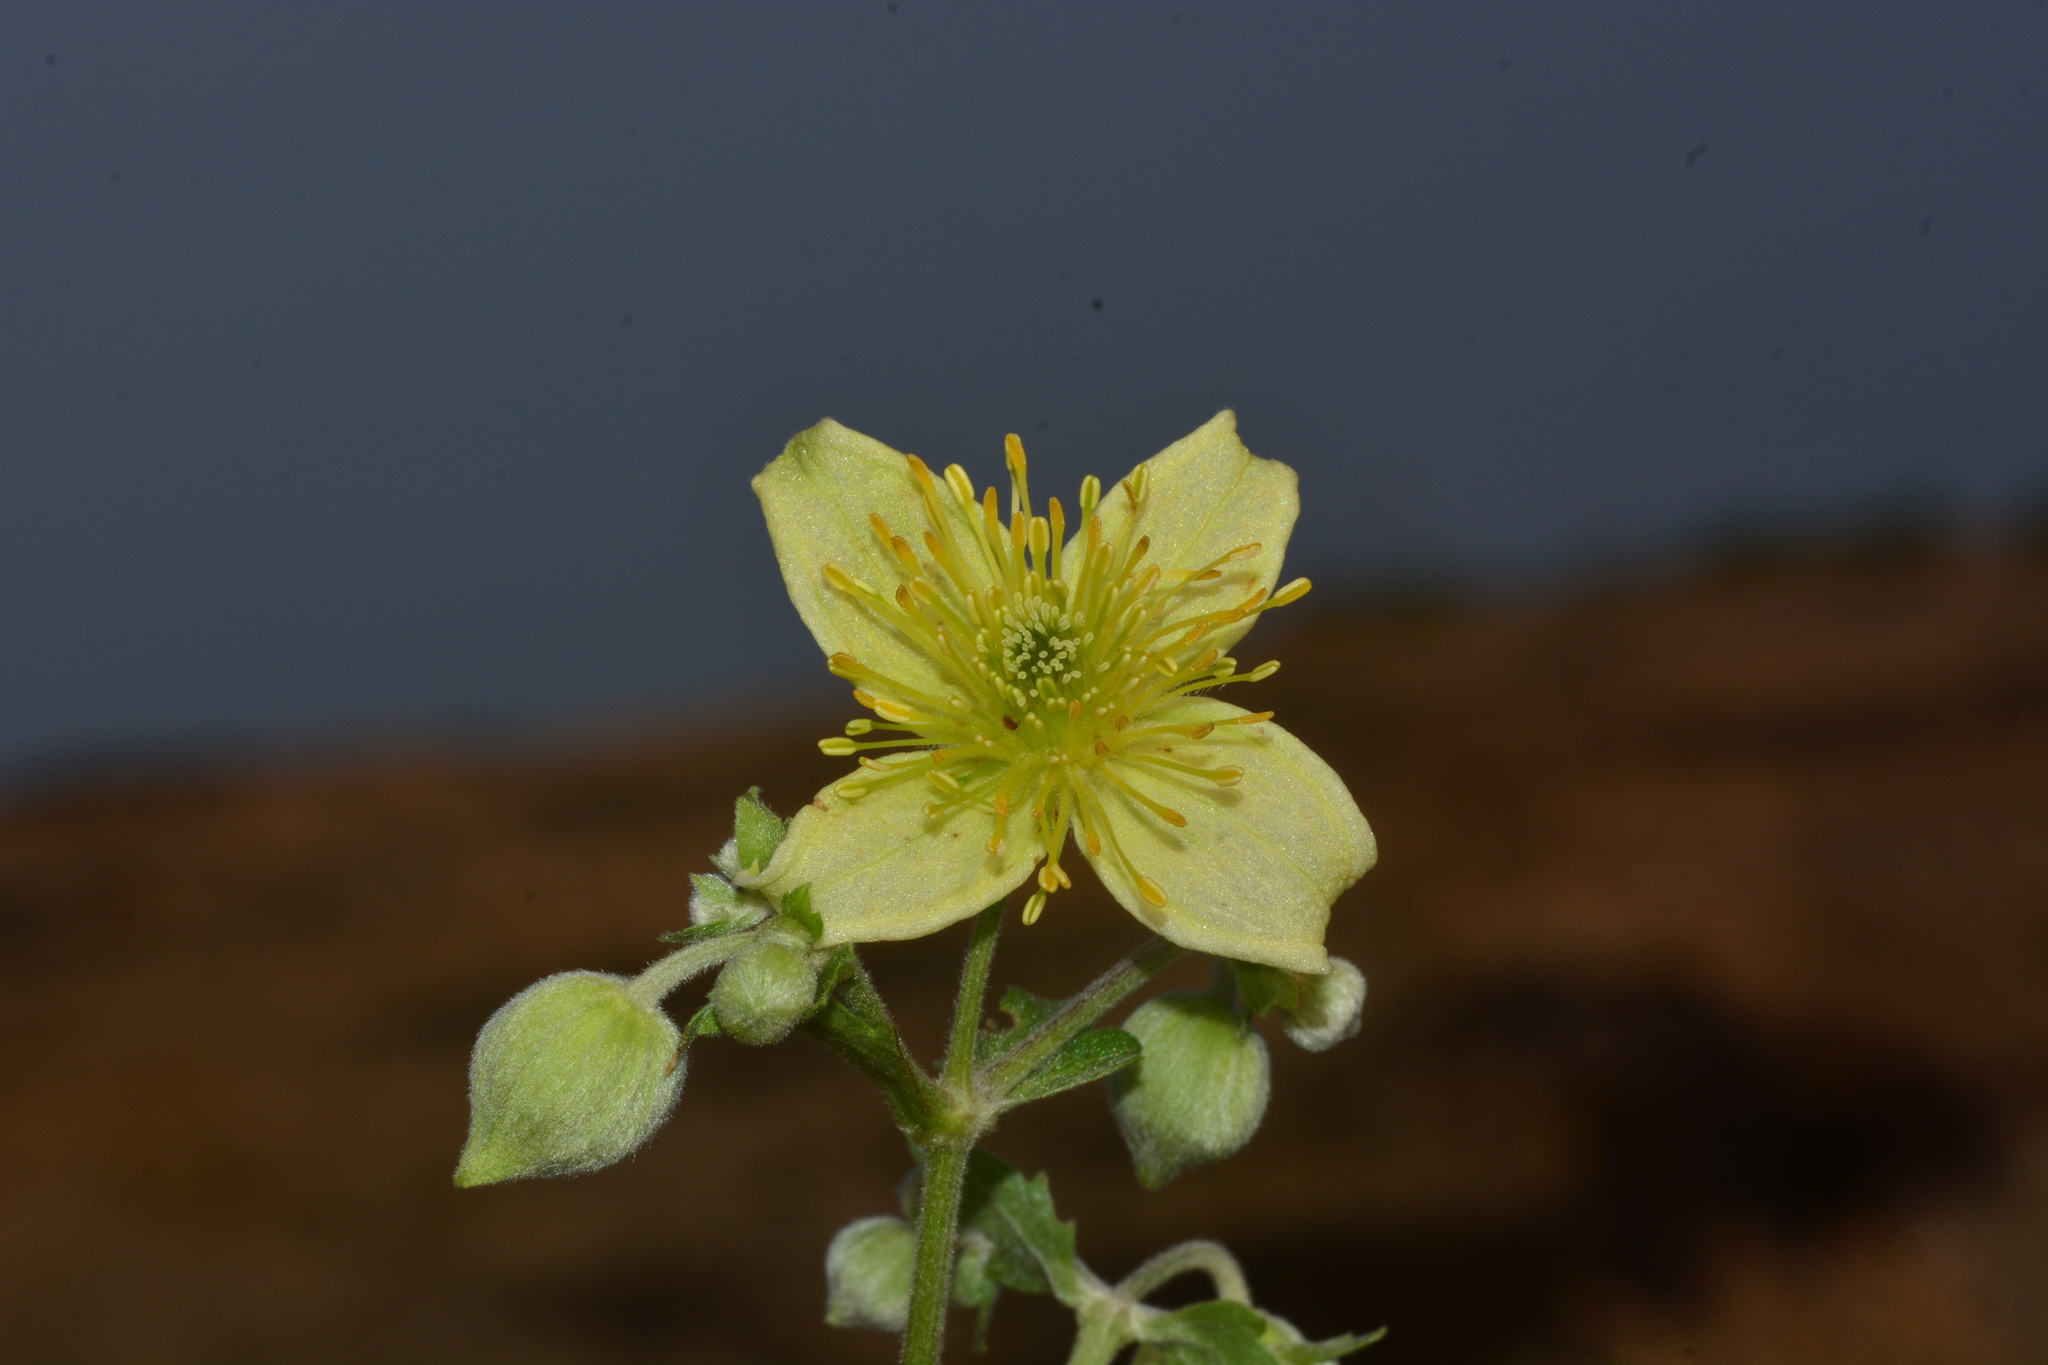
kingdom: Plantae
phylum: Tracheophyta
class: Magnoliopsida
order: Ranunculales
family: Ranunculaceae
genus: Clematis
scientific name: Clematis wightiana
